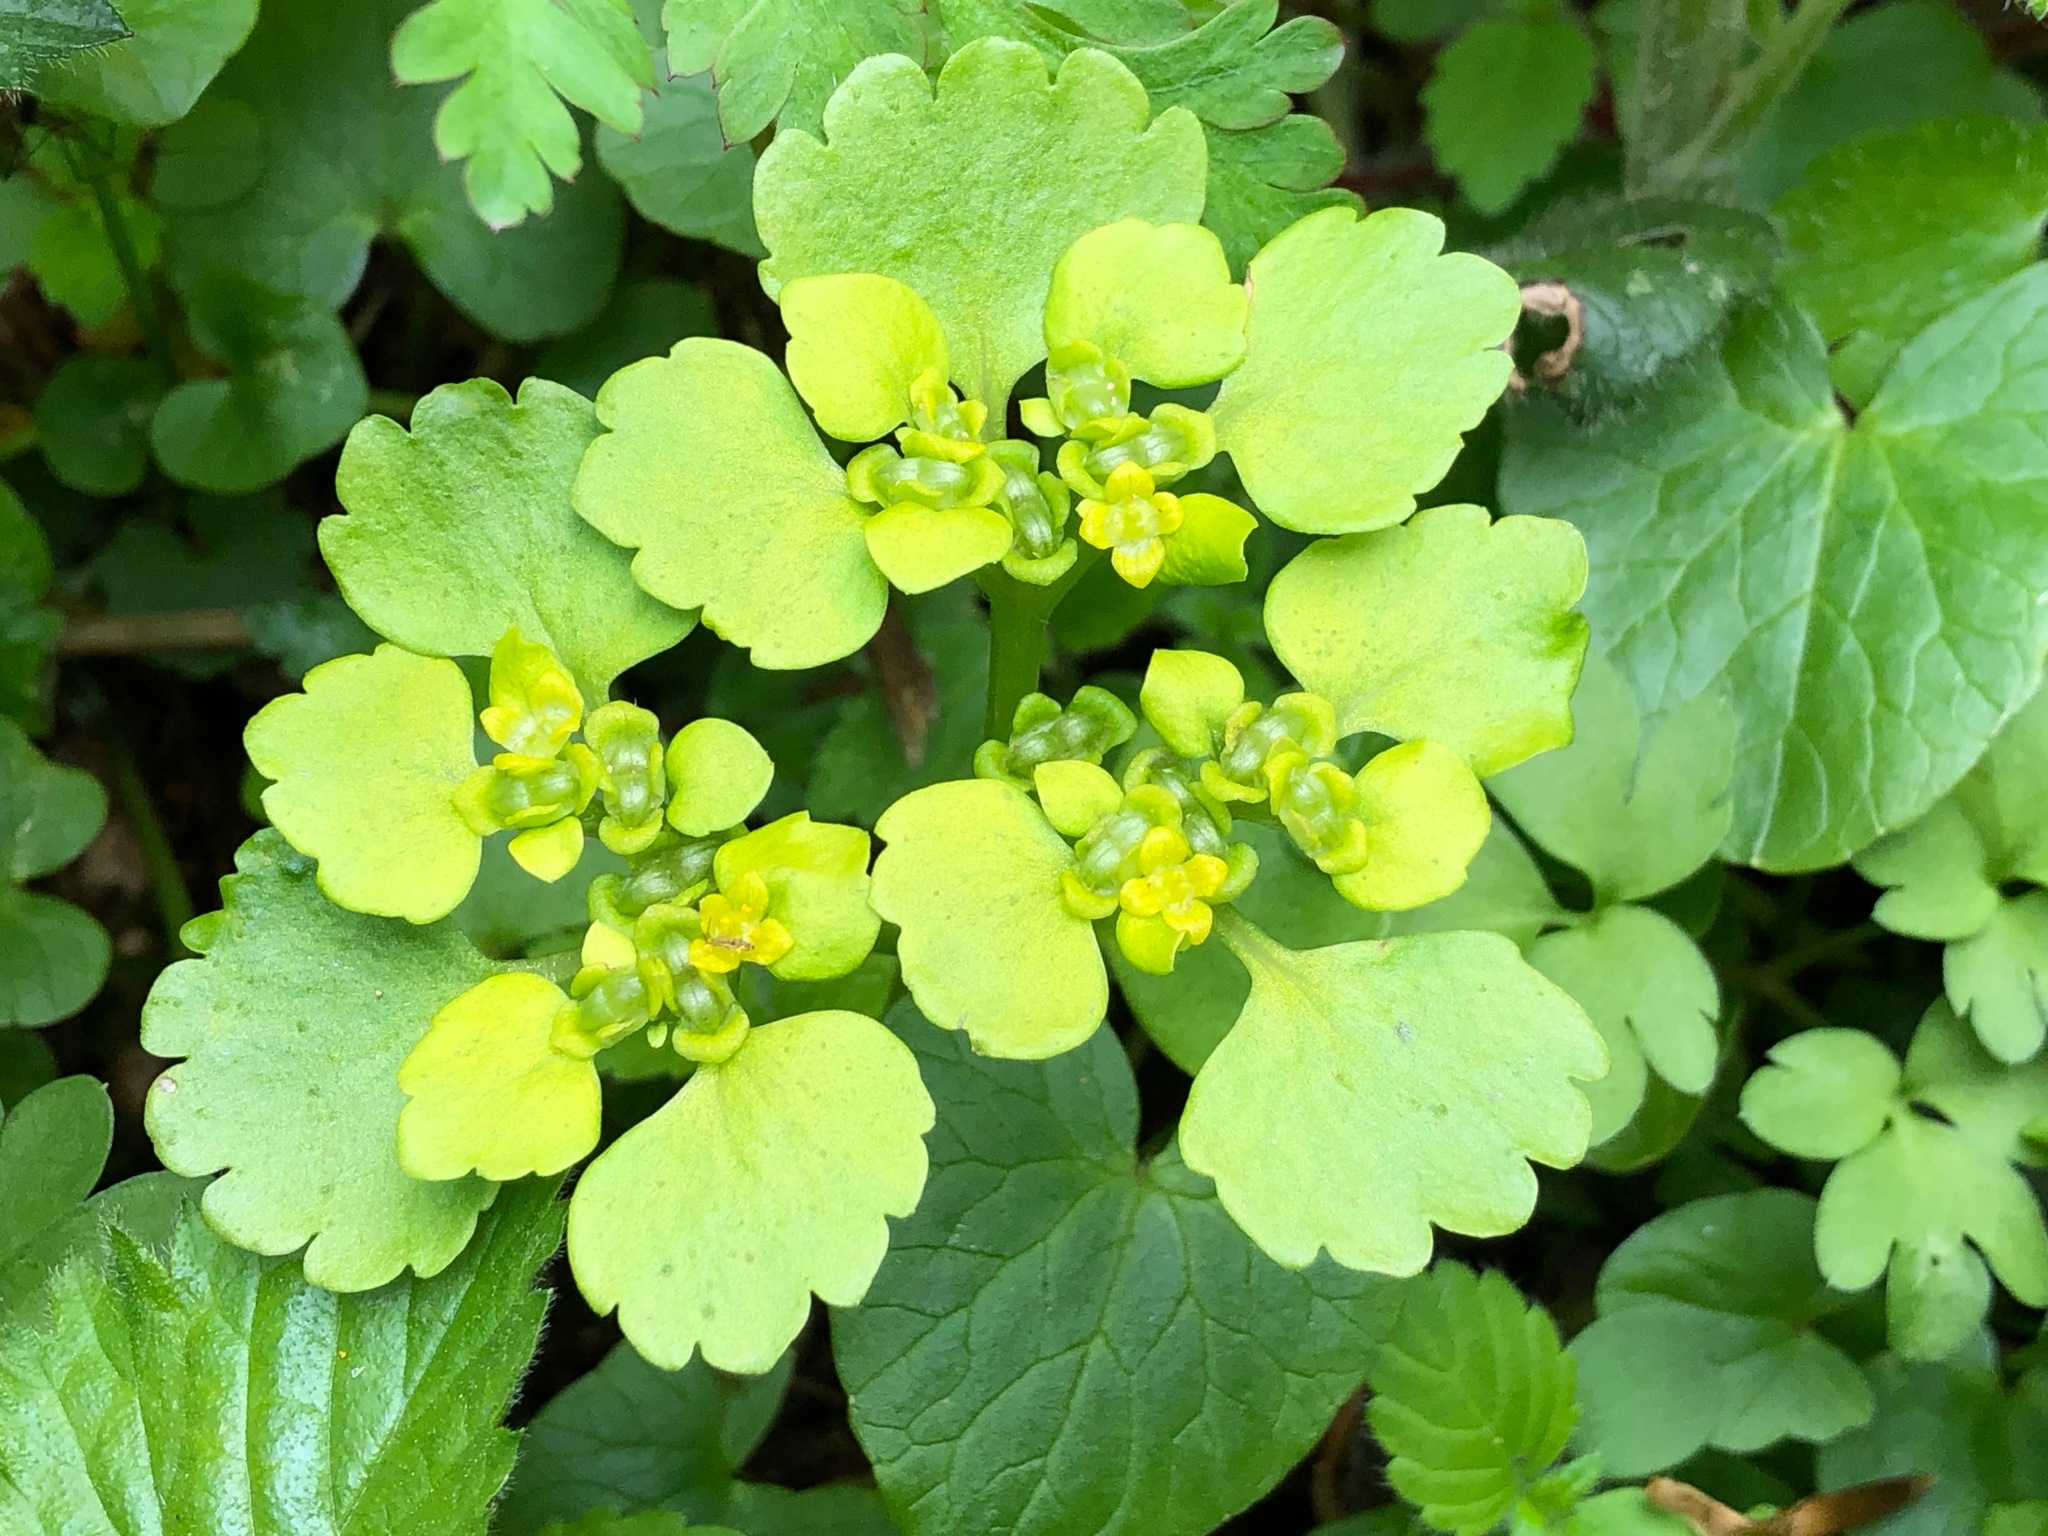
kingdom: Plantae
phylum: Tracheophyta
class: Magnoliopsida
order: Saxifragales
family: Saxifragaceae
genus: Chrysosplenium
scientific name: Chrysosplenium alternifolium
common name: Alternate-leaved golden-saxifrage
